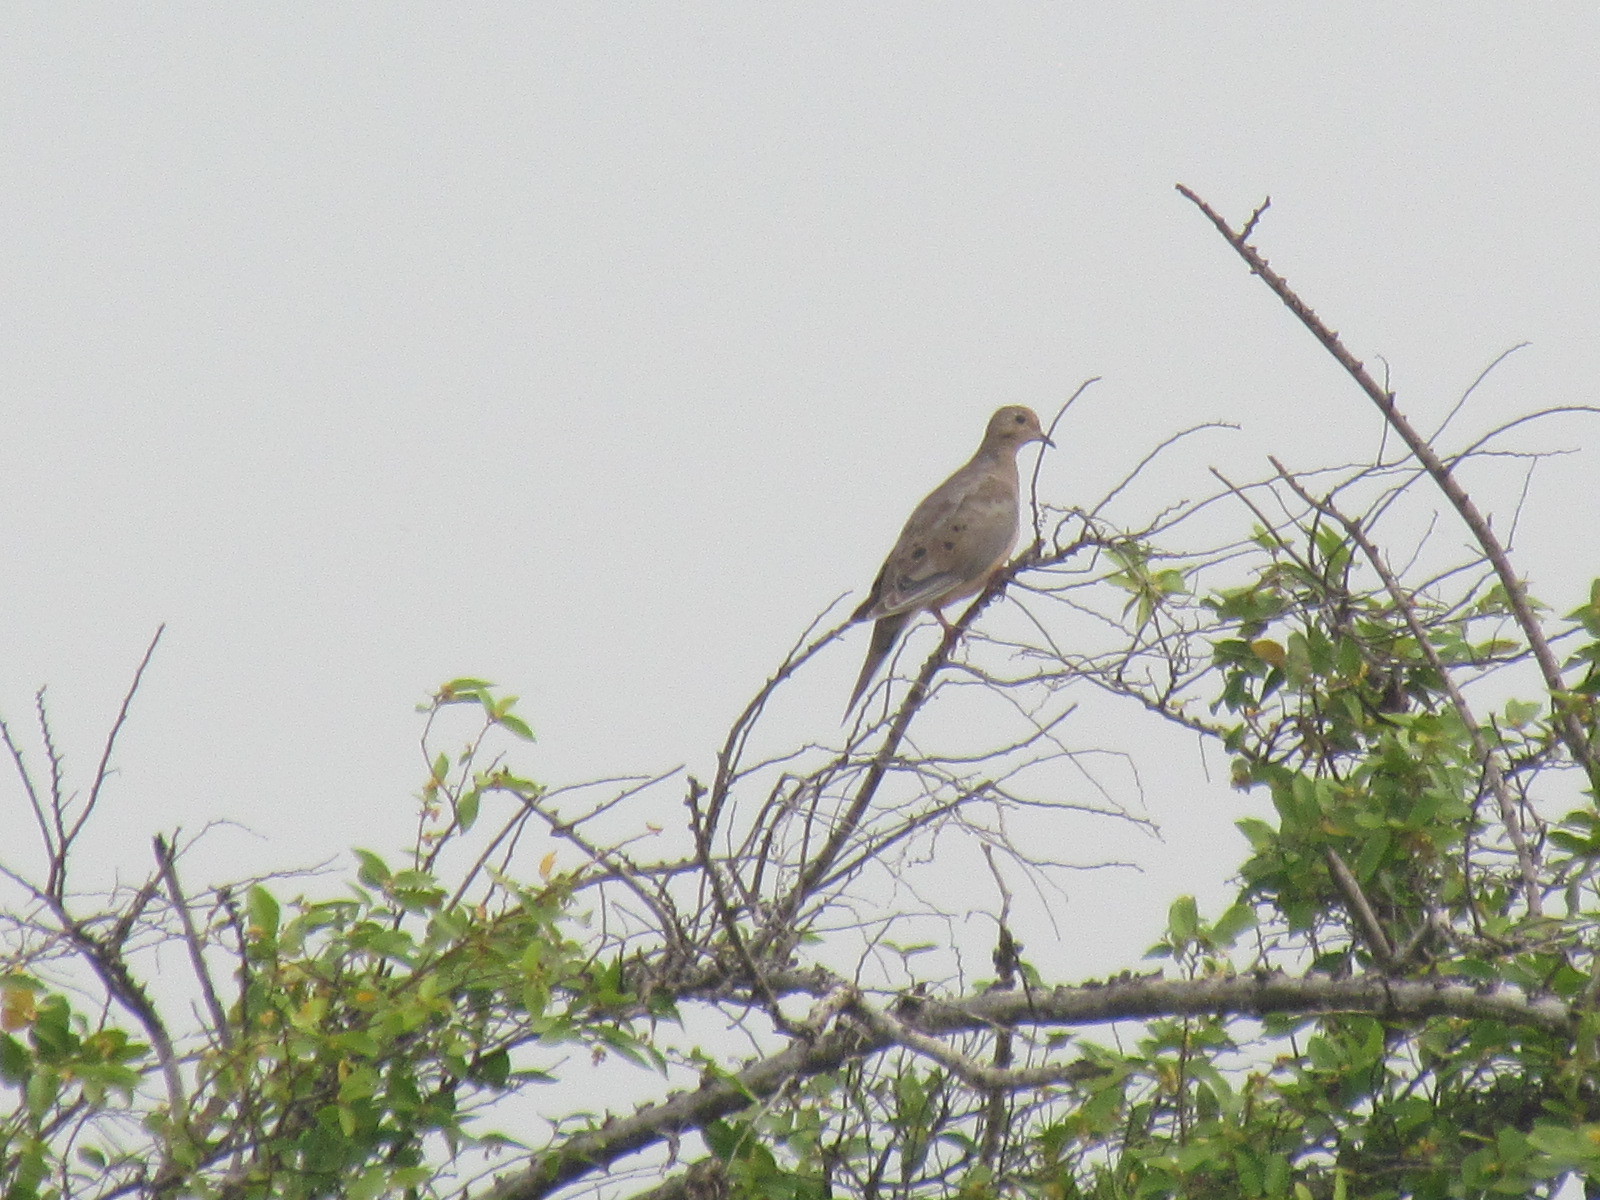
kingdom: Animalia
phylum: Chordata
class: Aves
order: Columbiformes
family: Columbidae
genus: Zenaida
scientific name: Zenaida macroura
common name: Mourning dove
